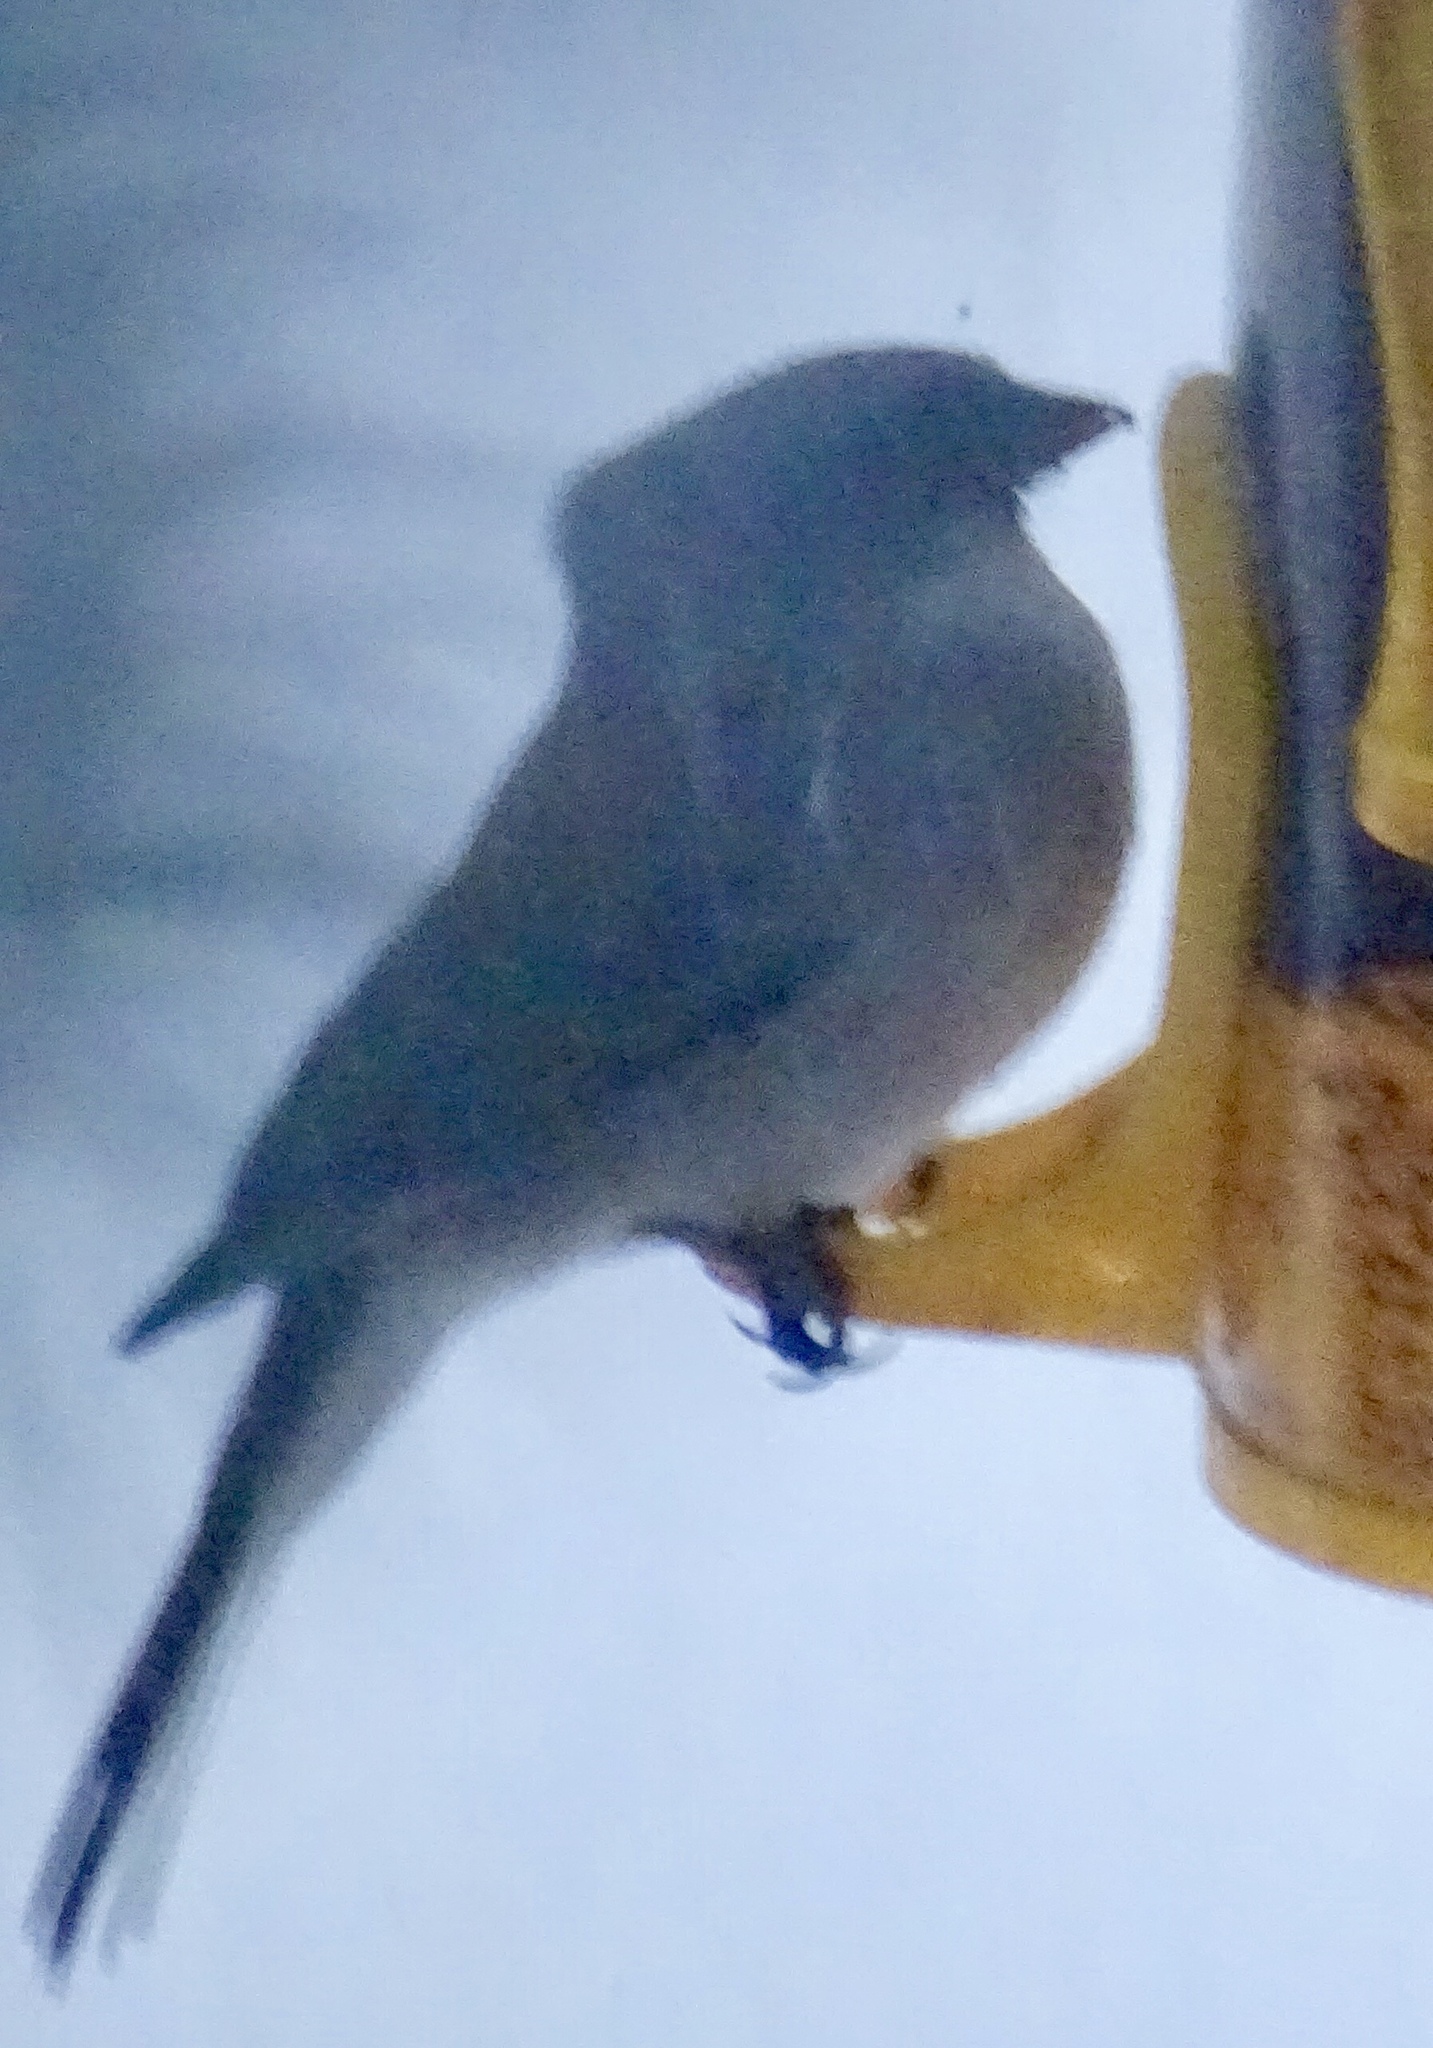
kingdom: Animalia
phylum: Chordata
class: Aves
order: Passeriformes
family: Passerellidae
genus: Junco
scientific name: Junco hyemalis
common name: Dark-eyed junco
